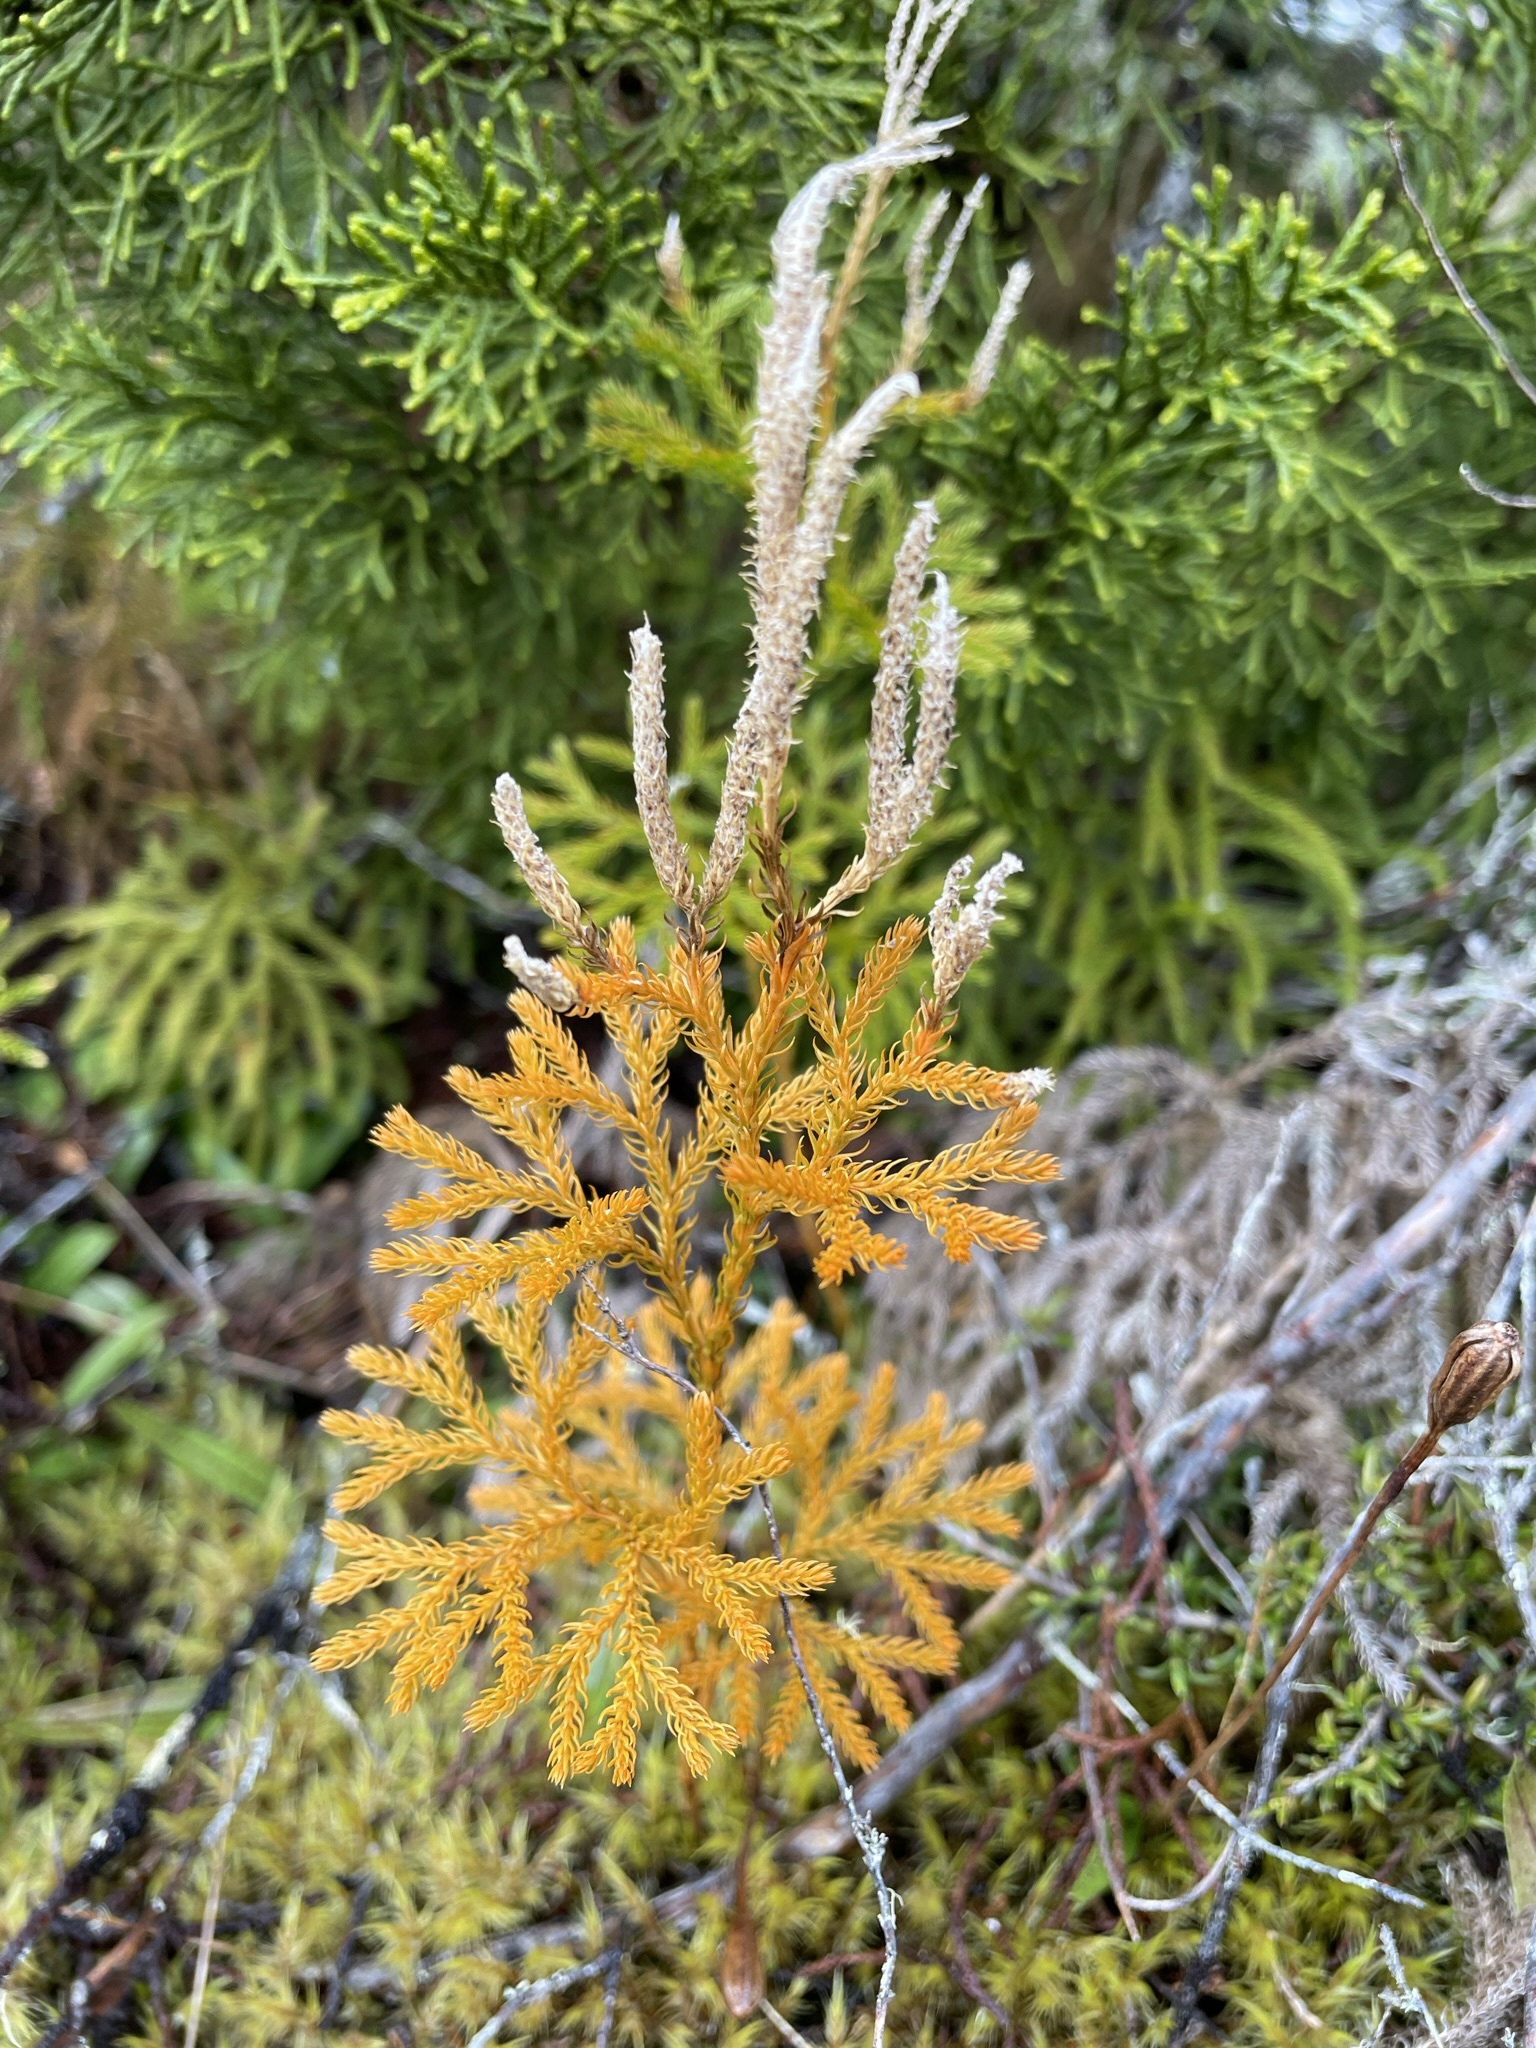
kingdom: Plantae
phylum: Tracheophyta
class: Lycopodiopsida
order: Lycopodiales
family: Lycopodiaceae
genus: Austrolycopodium
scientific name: Austrolycopodium fastigiatum
